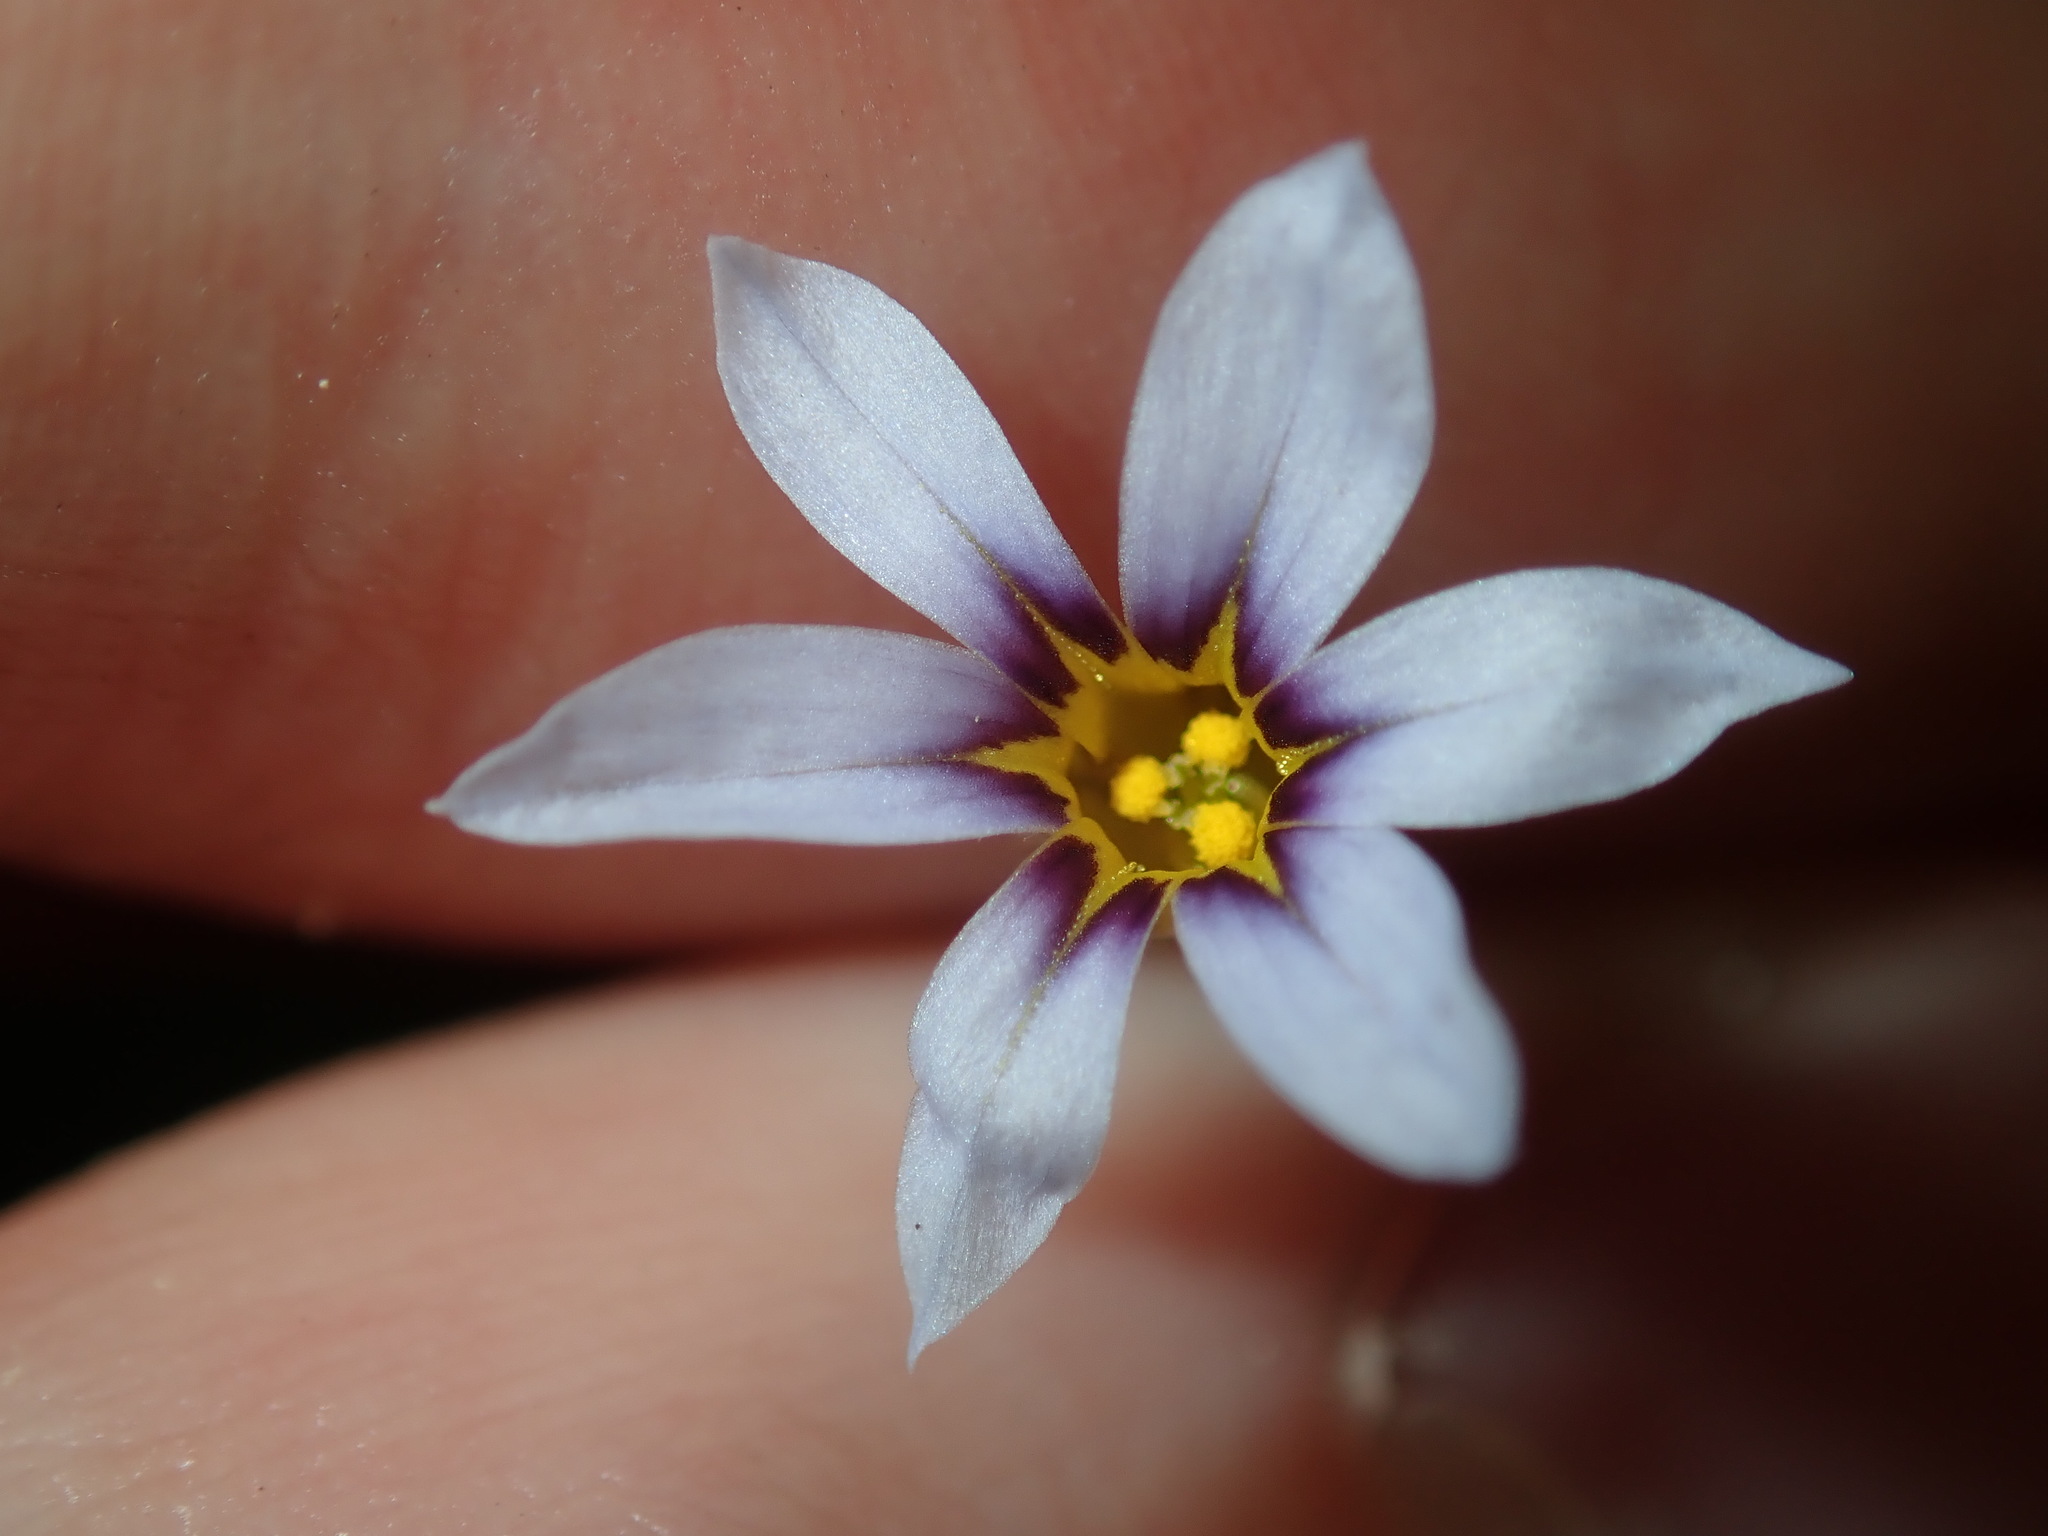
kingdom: Plantae
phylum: Tracheophyta
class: Liliopsida
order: Asparagales
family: Iridaceae
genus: Sisyrinchium
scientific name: Sisyrinchium micranthum
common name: Bermuda pigroot
